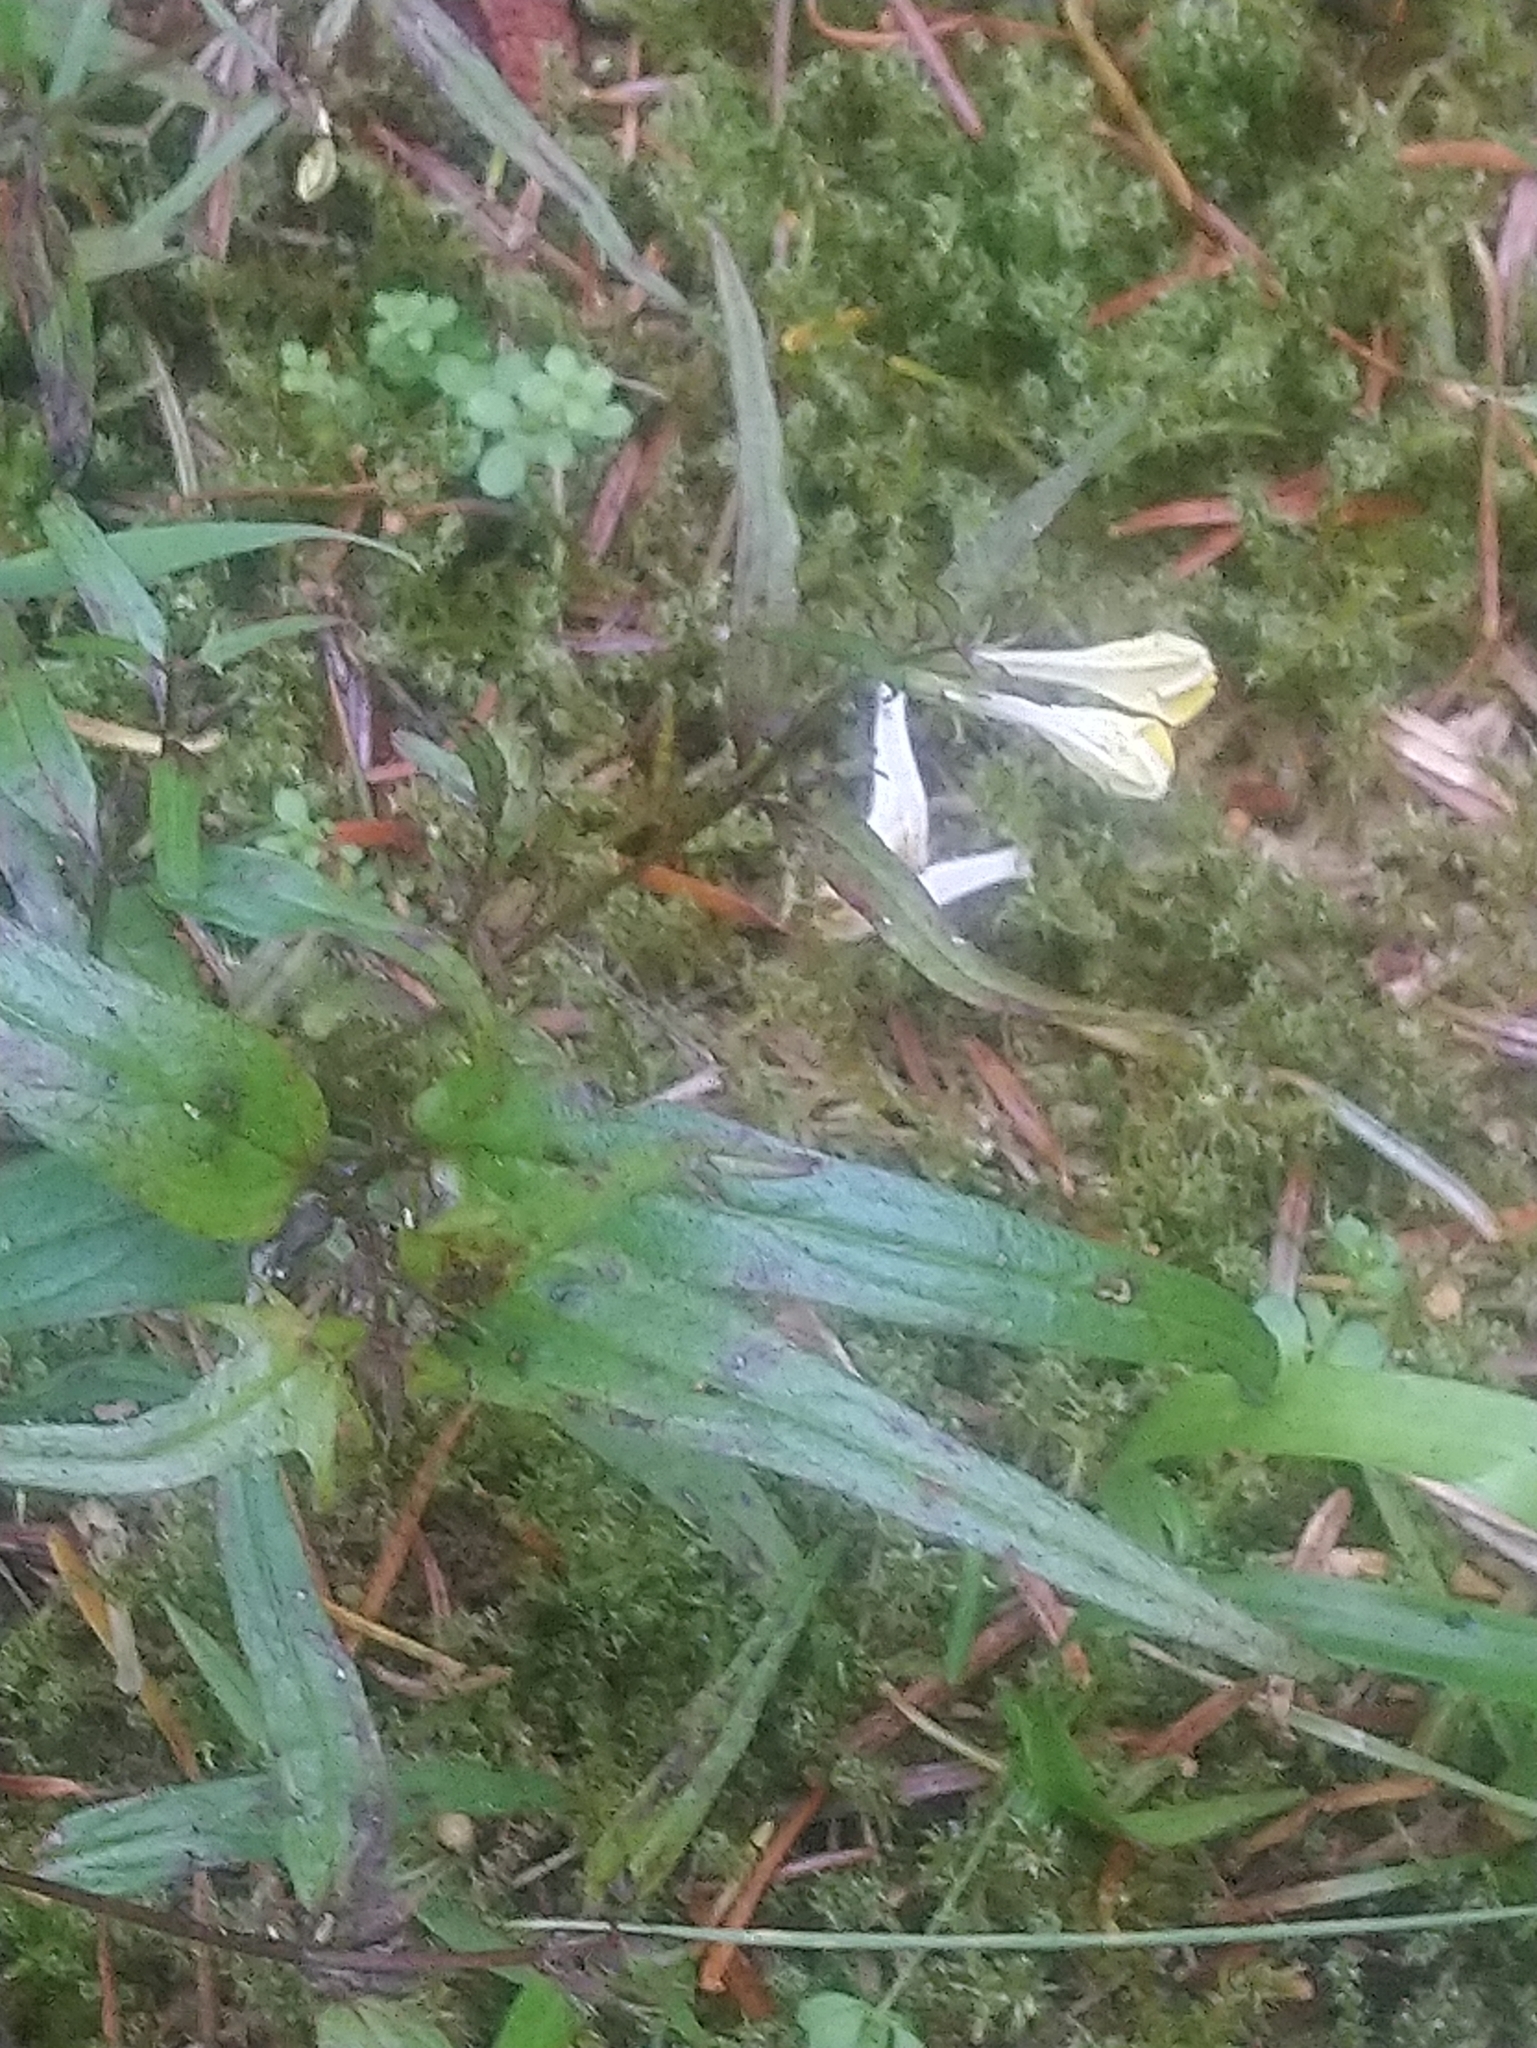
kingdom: Plantae
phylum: Tracheophyta
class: Magnoliopsida
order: Lamiales
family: Orobanchaceae
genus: Melampyrum
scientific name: Melampyrum pratense
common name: Common cow-wheat
